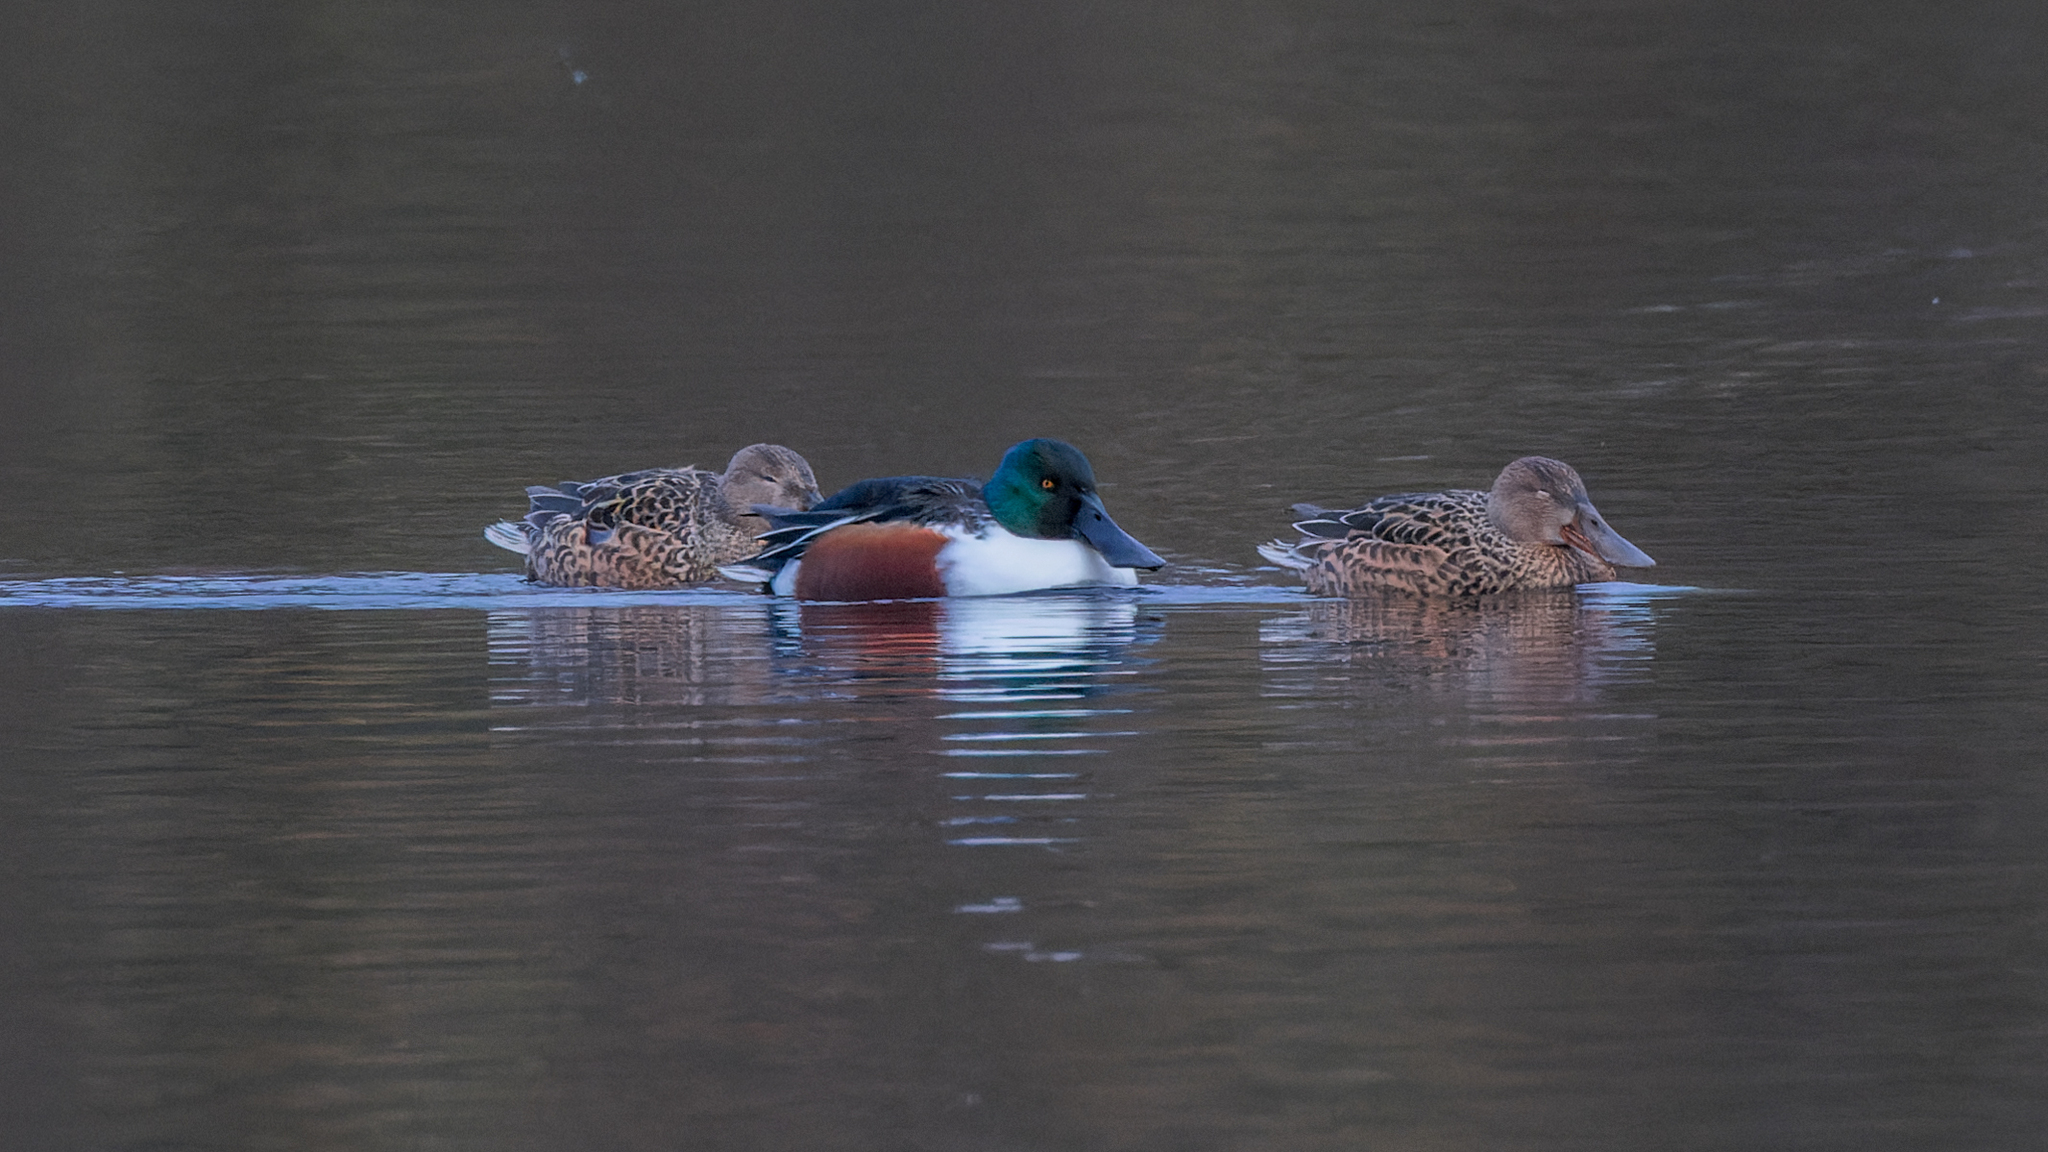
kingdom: Animalia
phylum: Chordata
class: Aves
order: Anseriformes
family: Anatidae
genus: Spatula
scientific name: Spatula clypeata
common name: Northern shoveler
